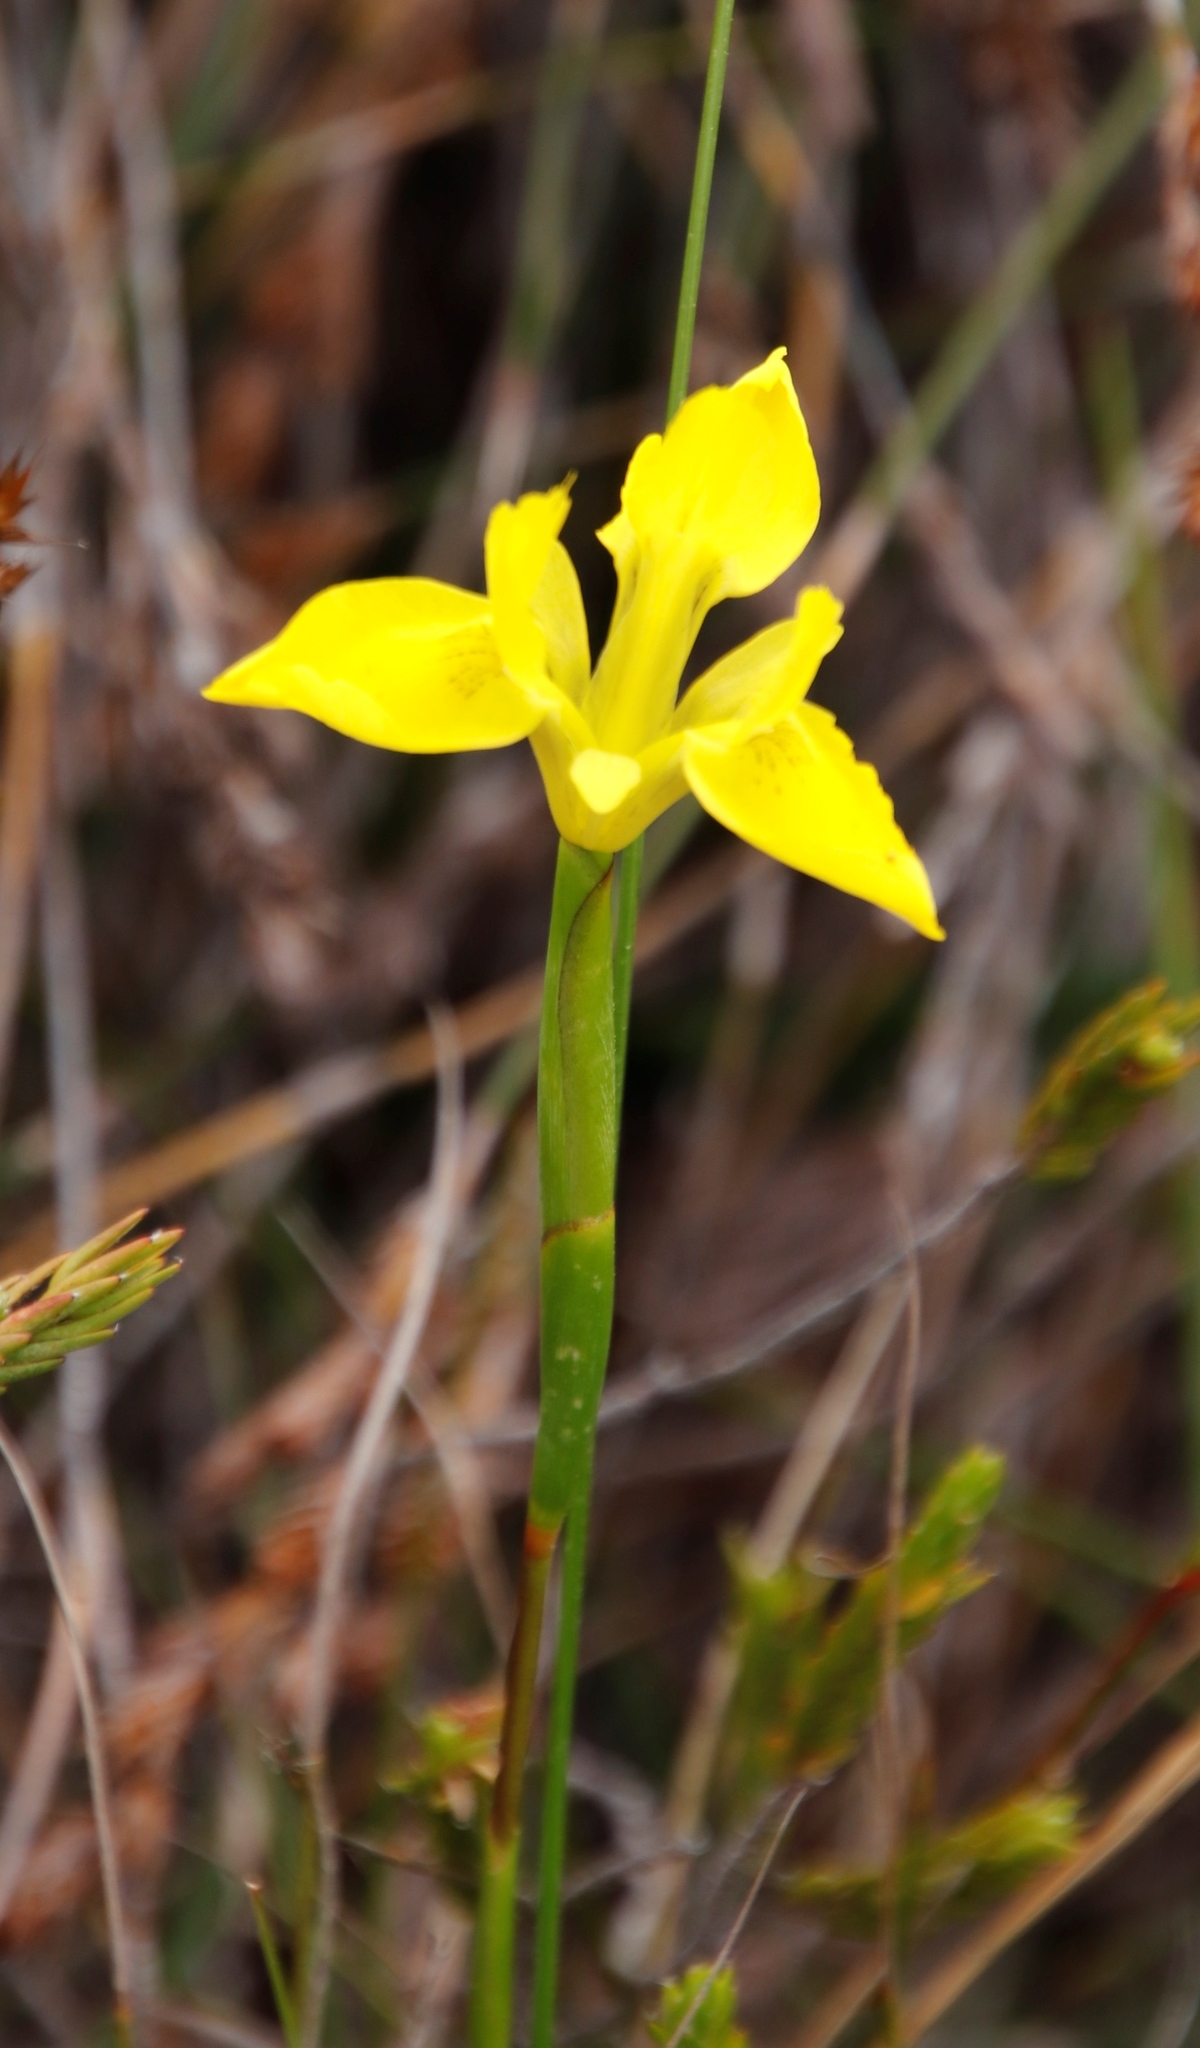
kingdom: Plantae
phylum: Tracheophyta
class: Liliopsida
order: Asparagales
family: Iridaceae
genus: Moraea
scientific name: Moraea neglecta
